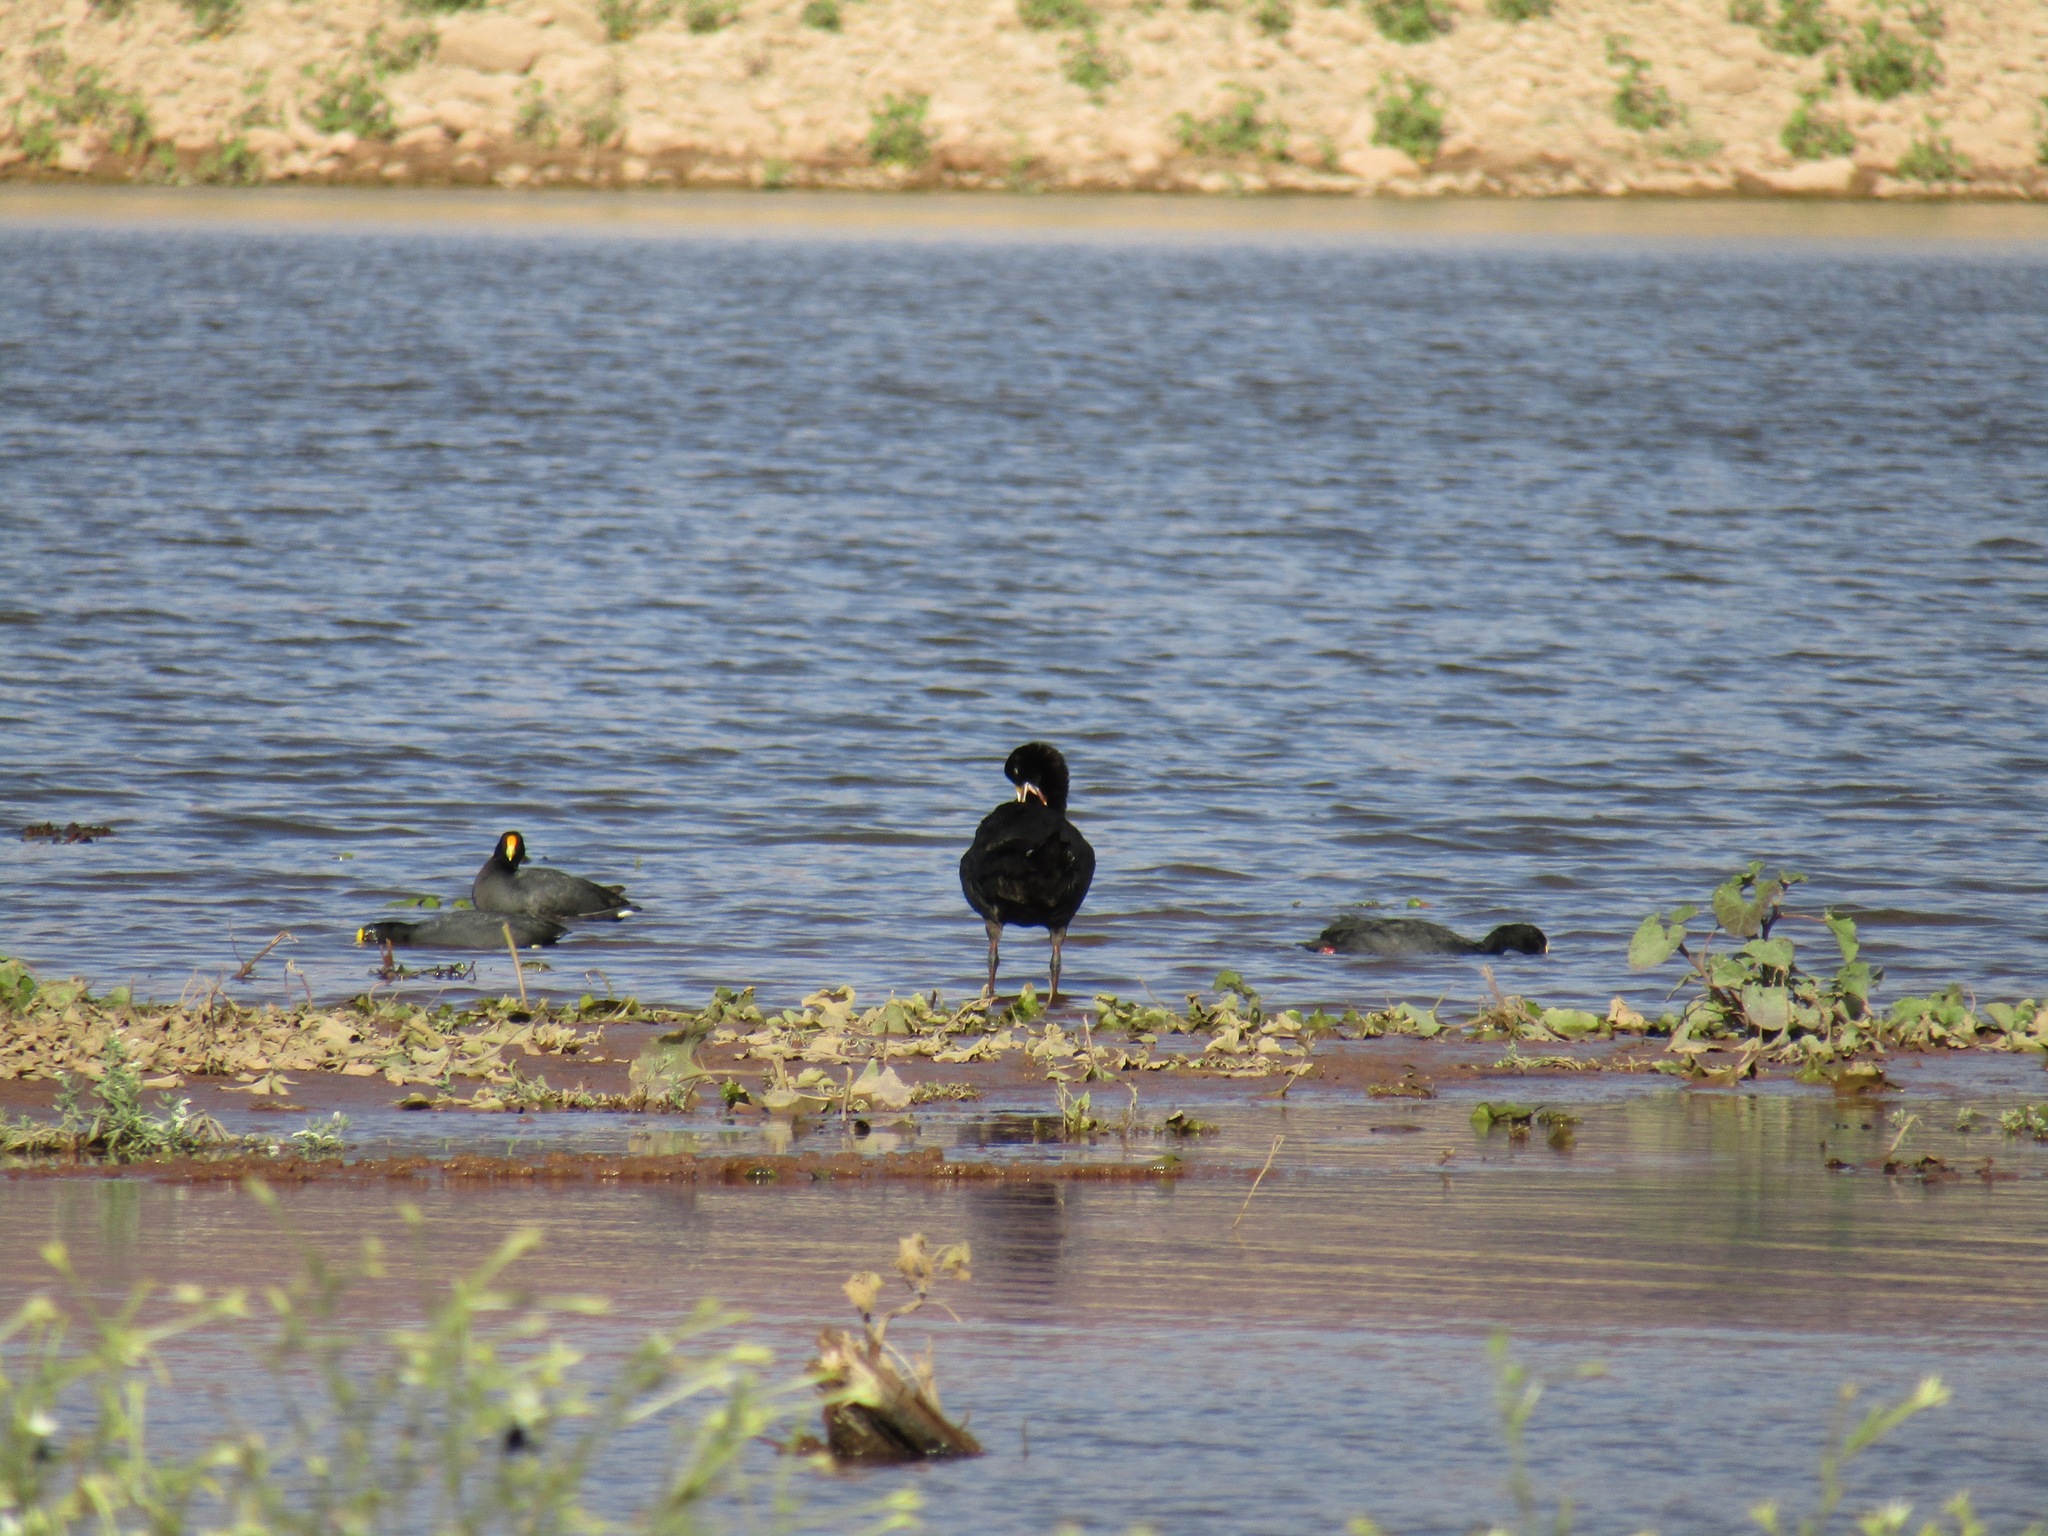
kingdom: Animalia
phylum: Chordata
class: Aves
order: Gruiformes
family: Rallidae
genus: Fulica
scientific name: Fulica gigantea
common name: Giant coot
